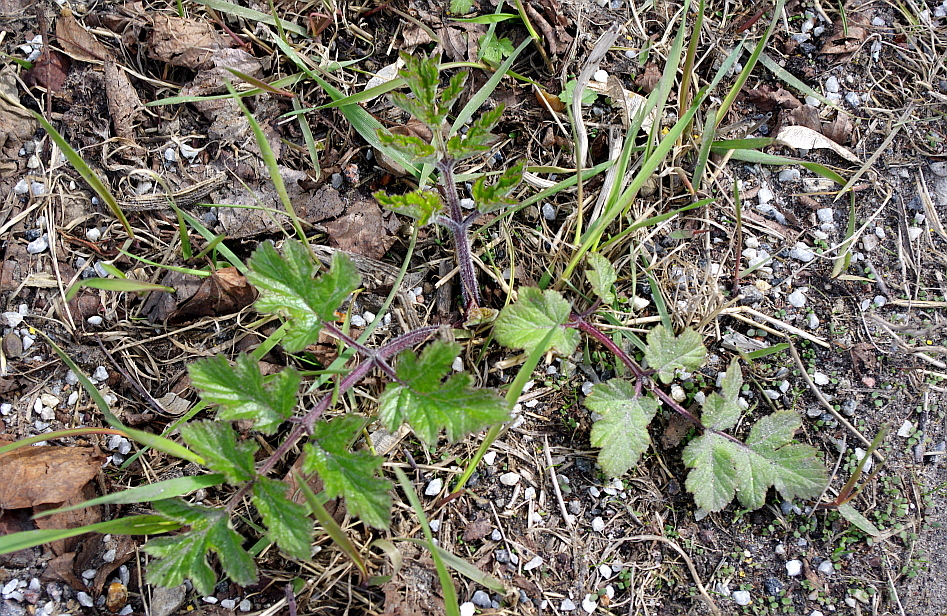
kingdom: Plantae
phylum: Tracheophyta
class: Magnoliopsida
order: Apiales
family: Apiaceae
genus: Heracleum
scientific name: Heracleum sphondylium
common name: Hogweed
